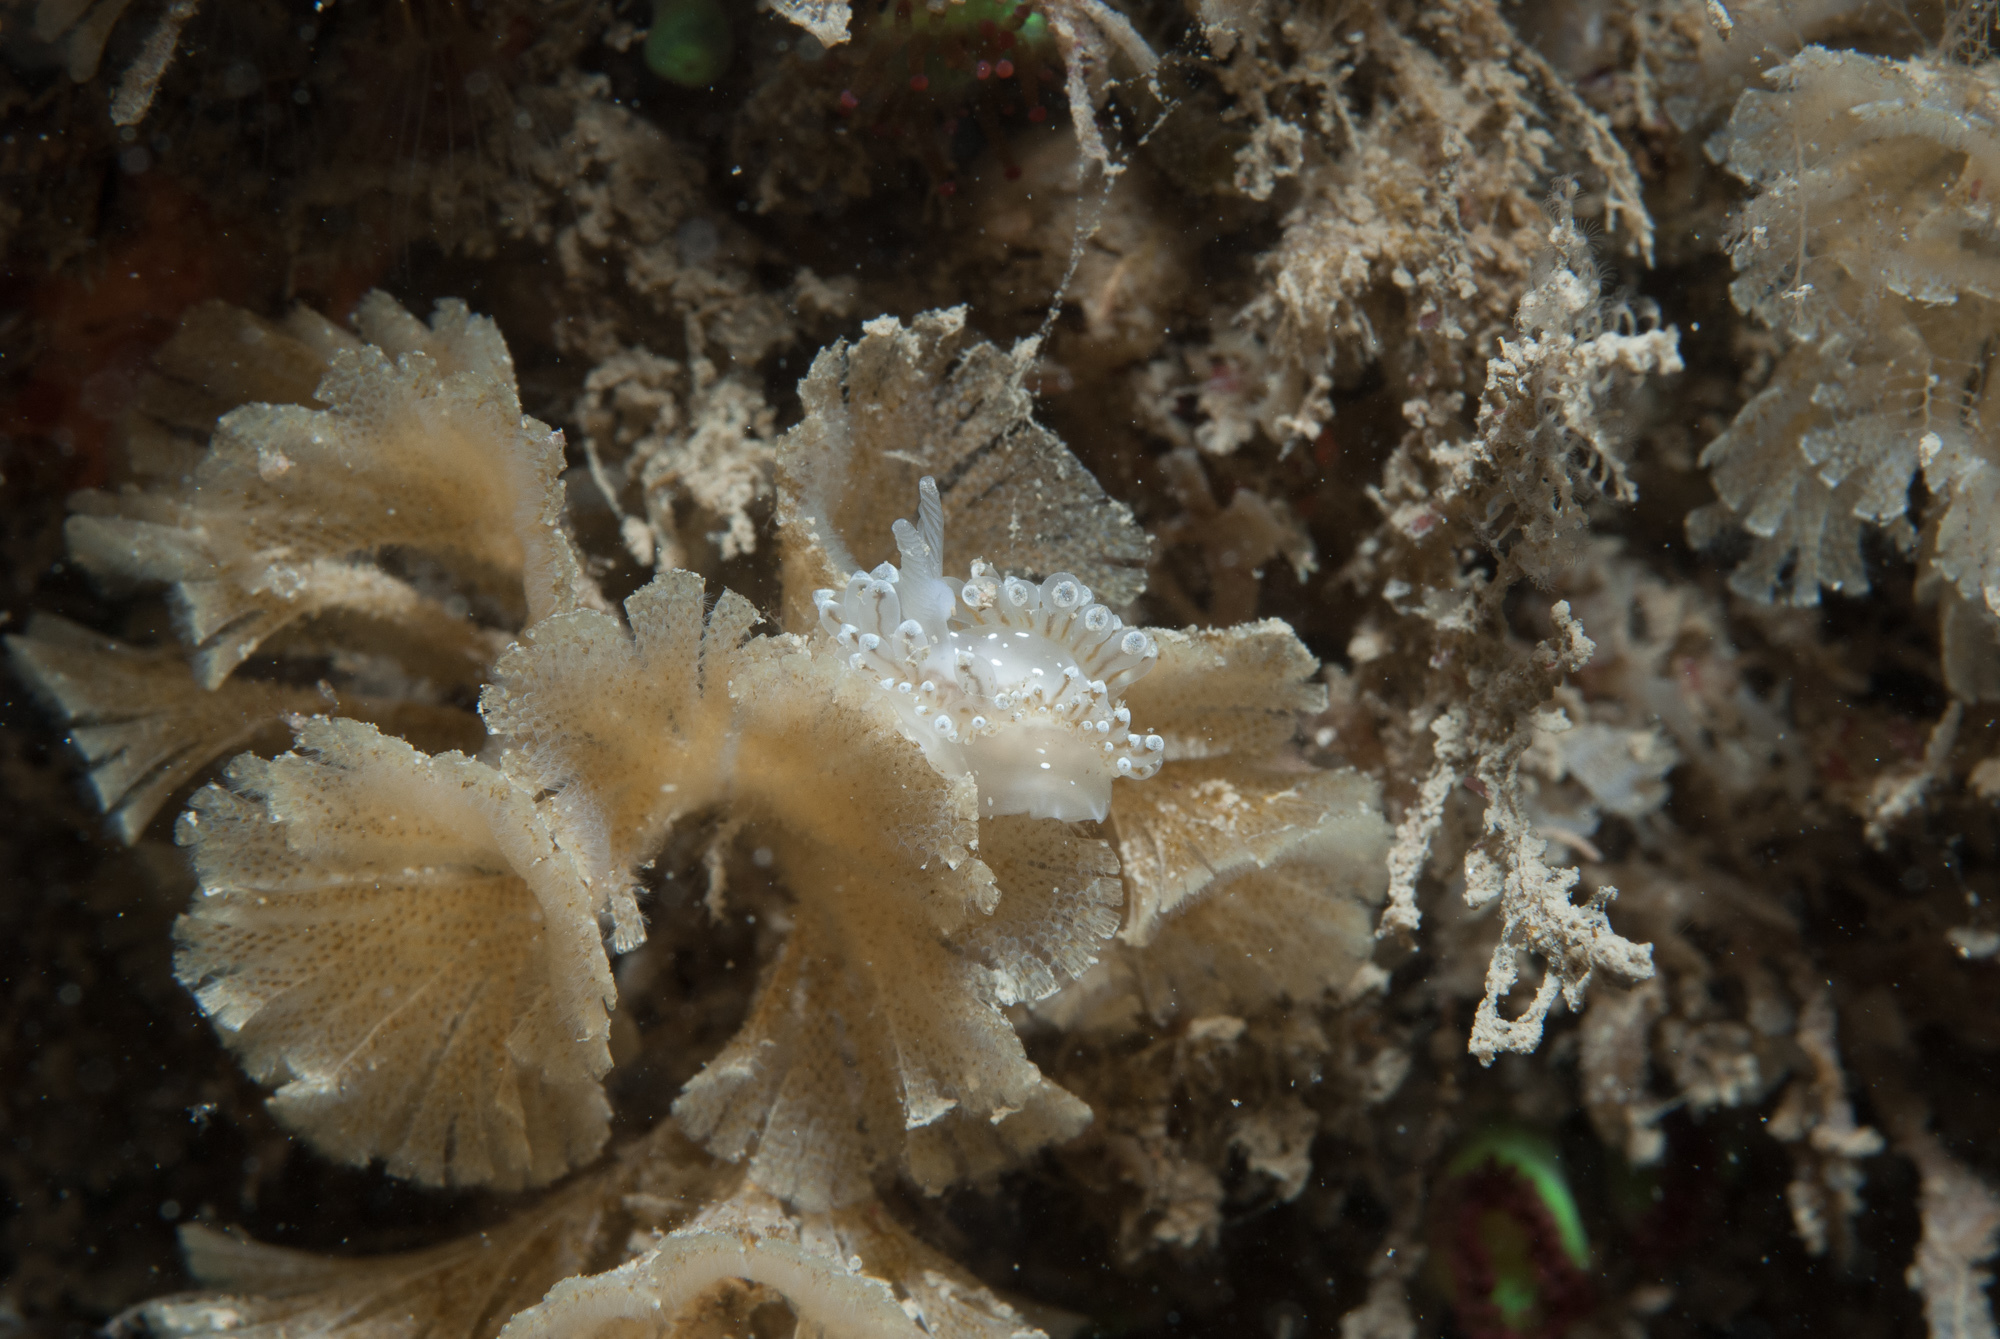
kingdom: Animalia
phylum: Mollusca
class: Gastropoda
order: Nudibranchia
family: Janolidae
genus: Antiopella
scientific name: Antiopella cristata
